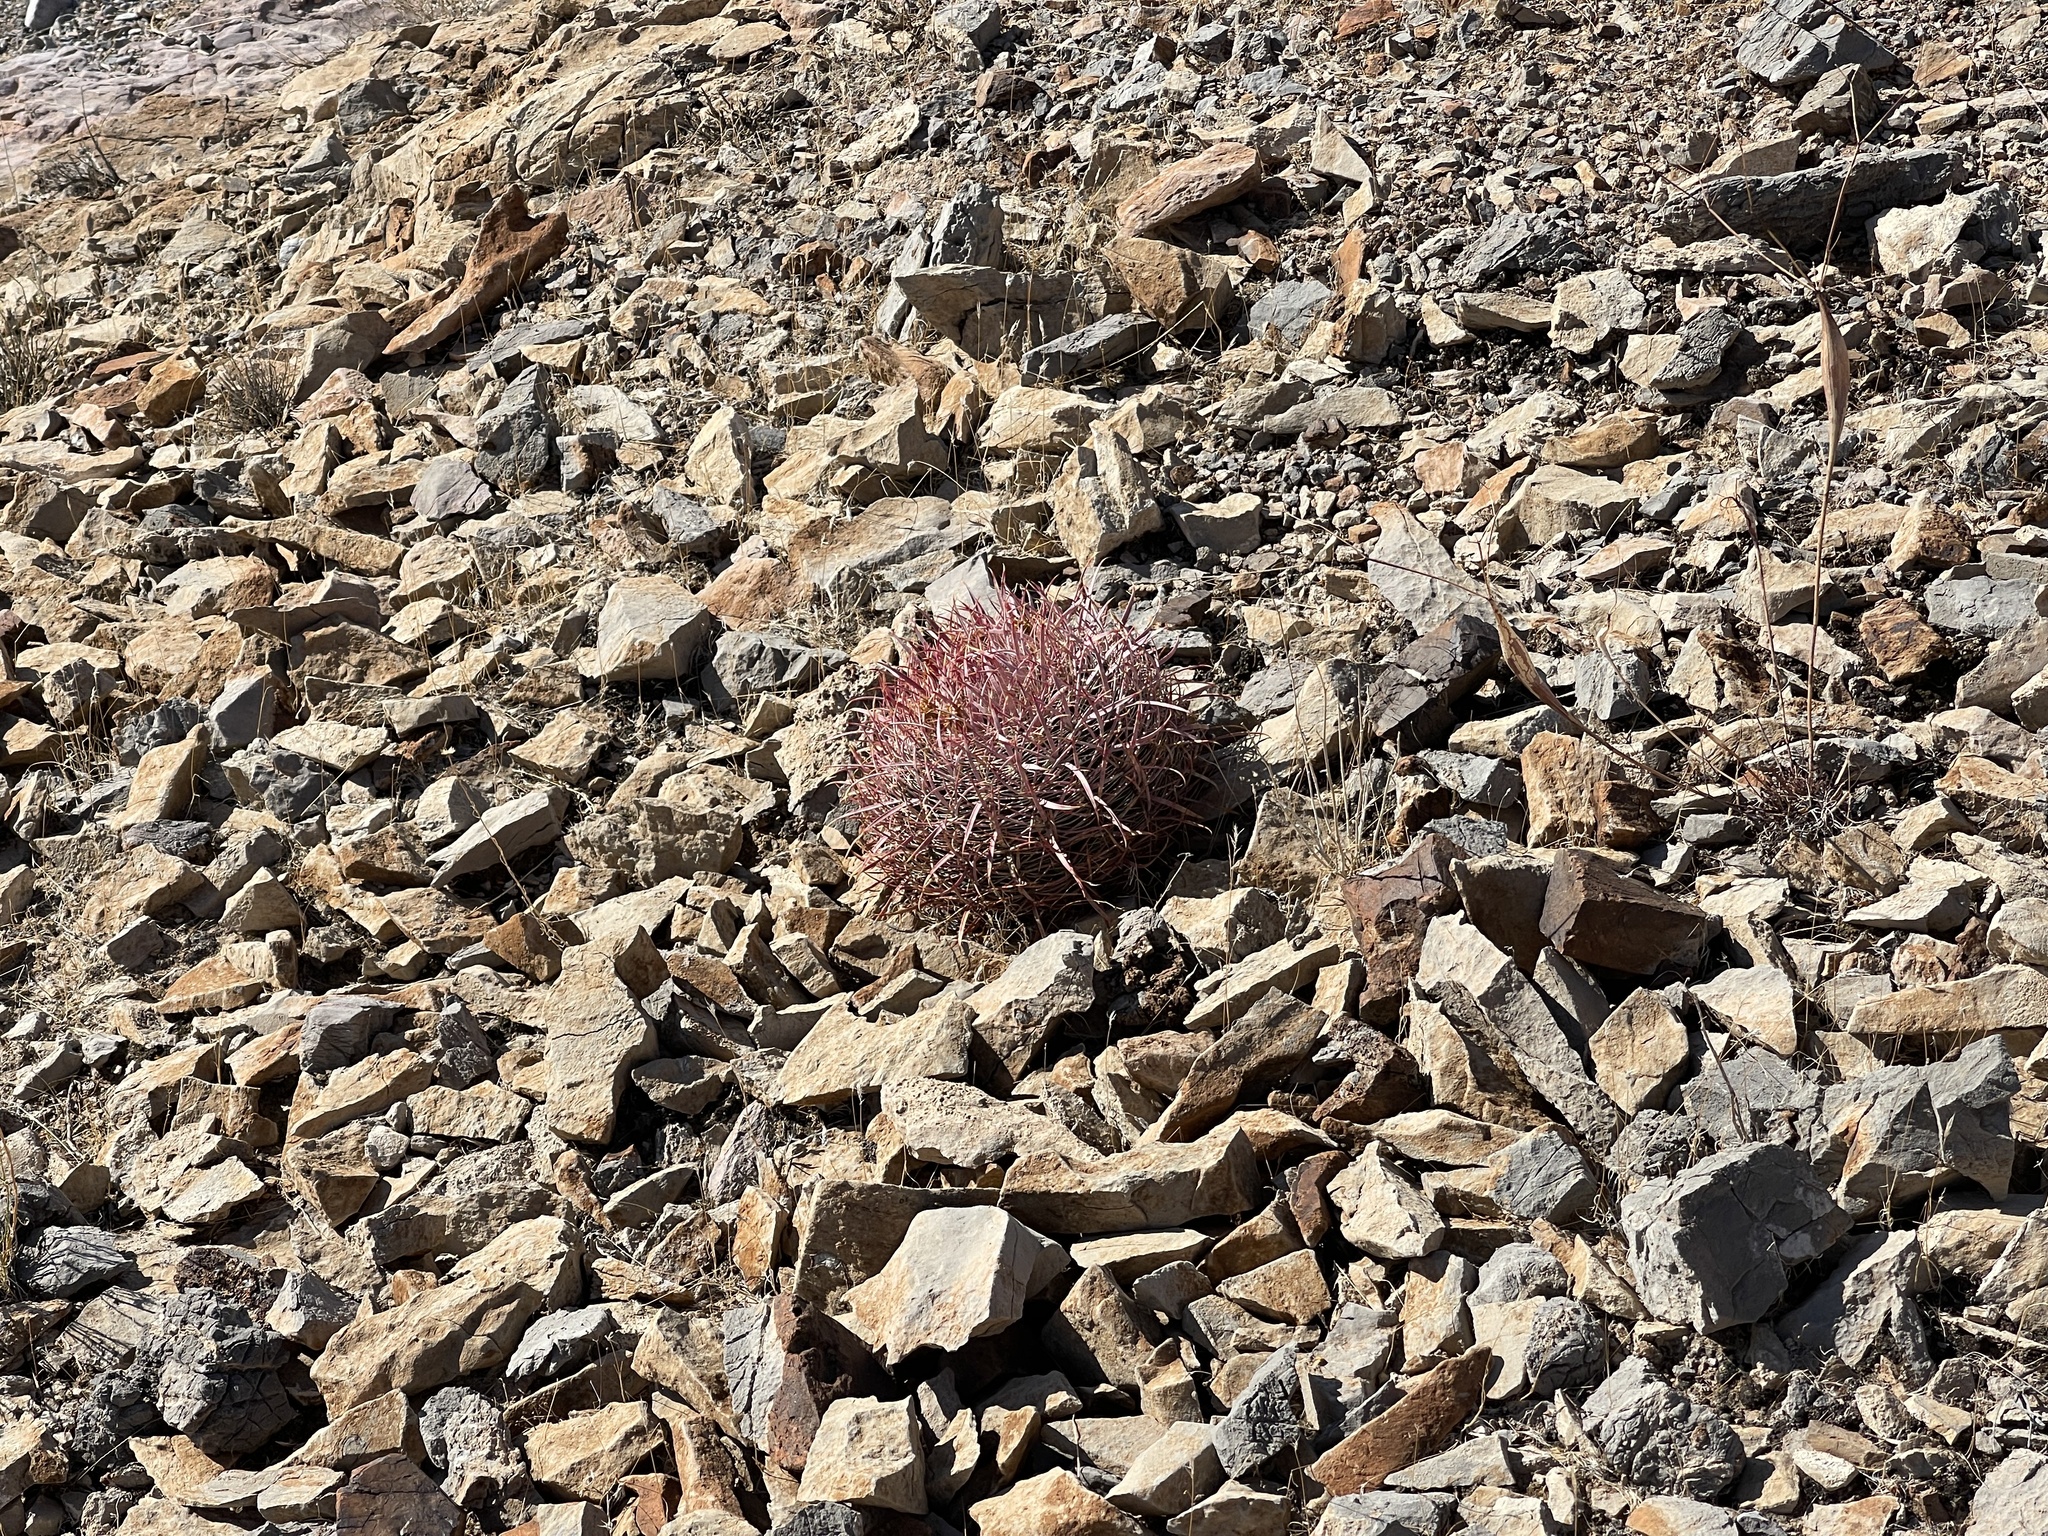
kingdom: Plantae
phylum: Tracheophyta
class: Magnoliopsida
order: Caryophyllales
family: Cactaceae
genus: Ferocactus
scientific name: Ferocactus cylindraceus
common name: California barrel cactus
